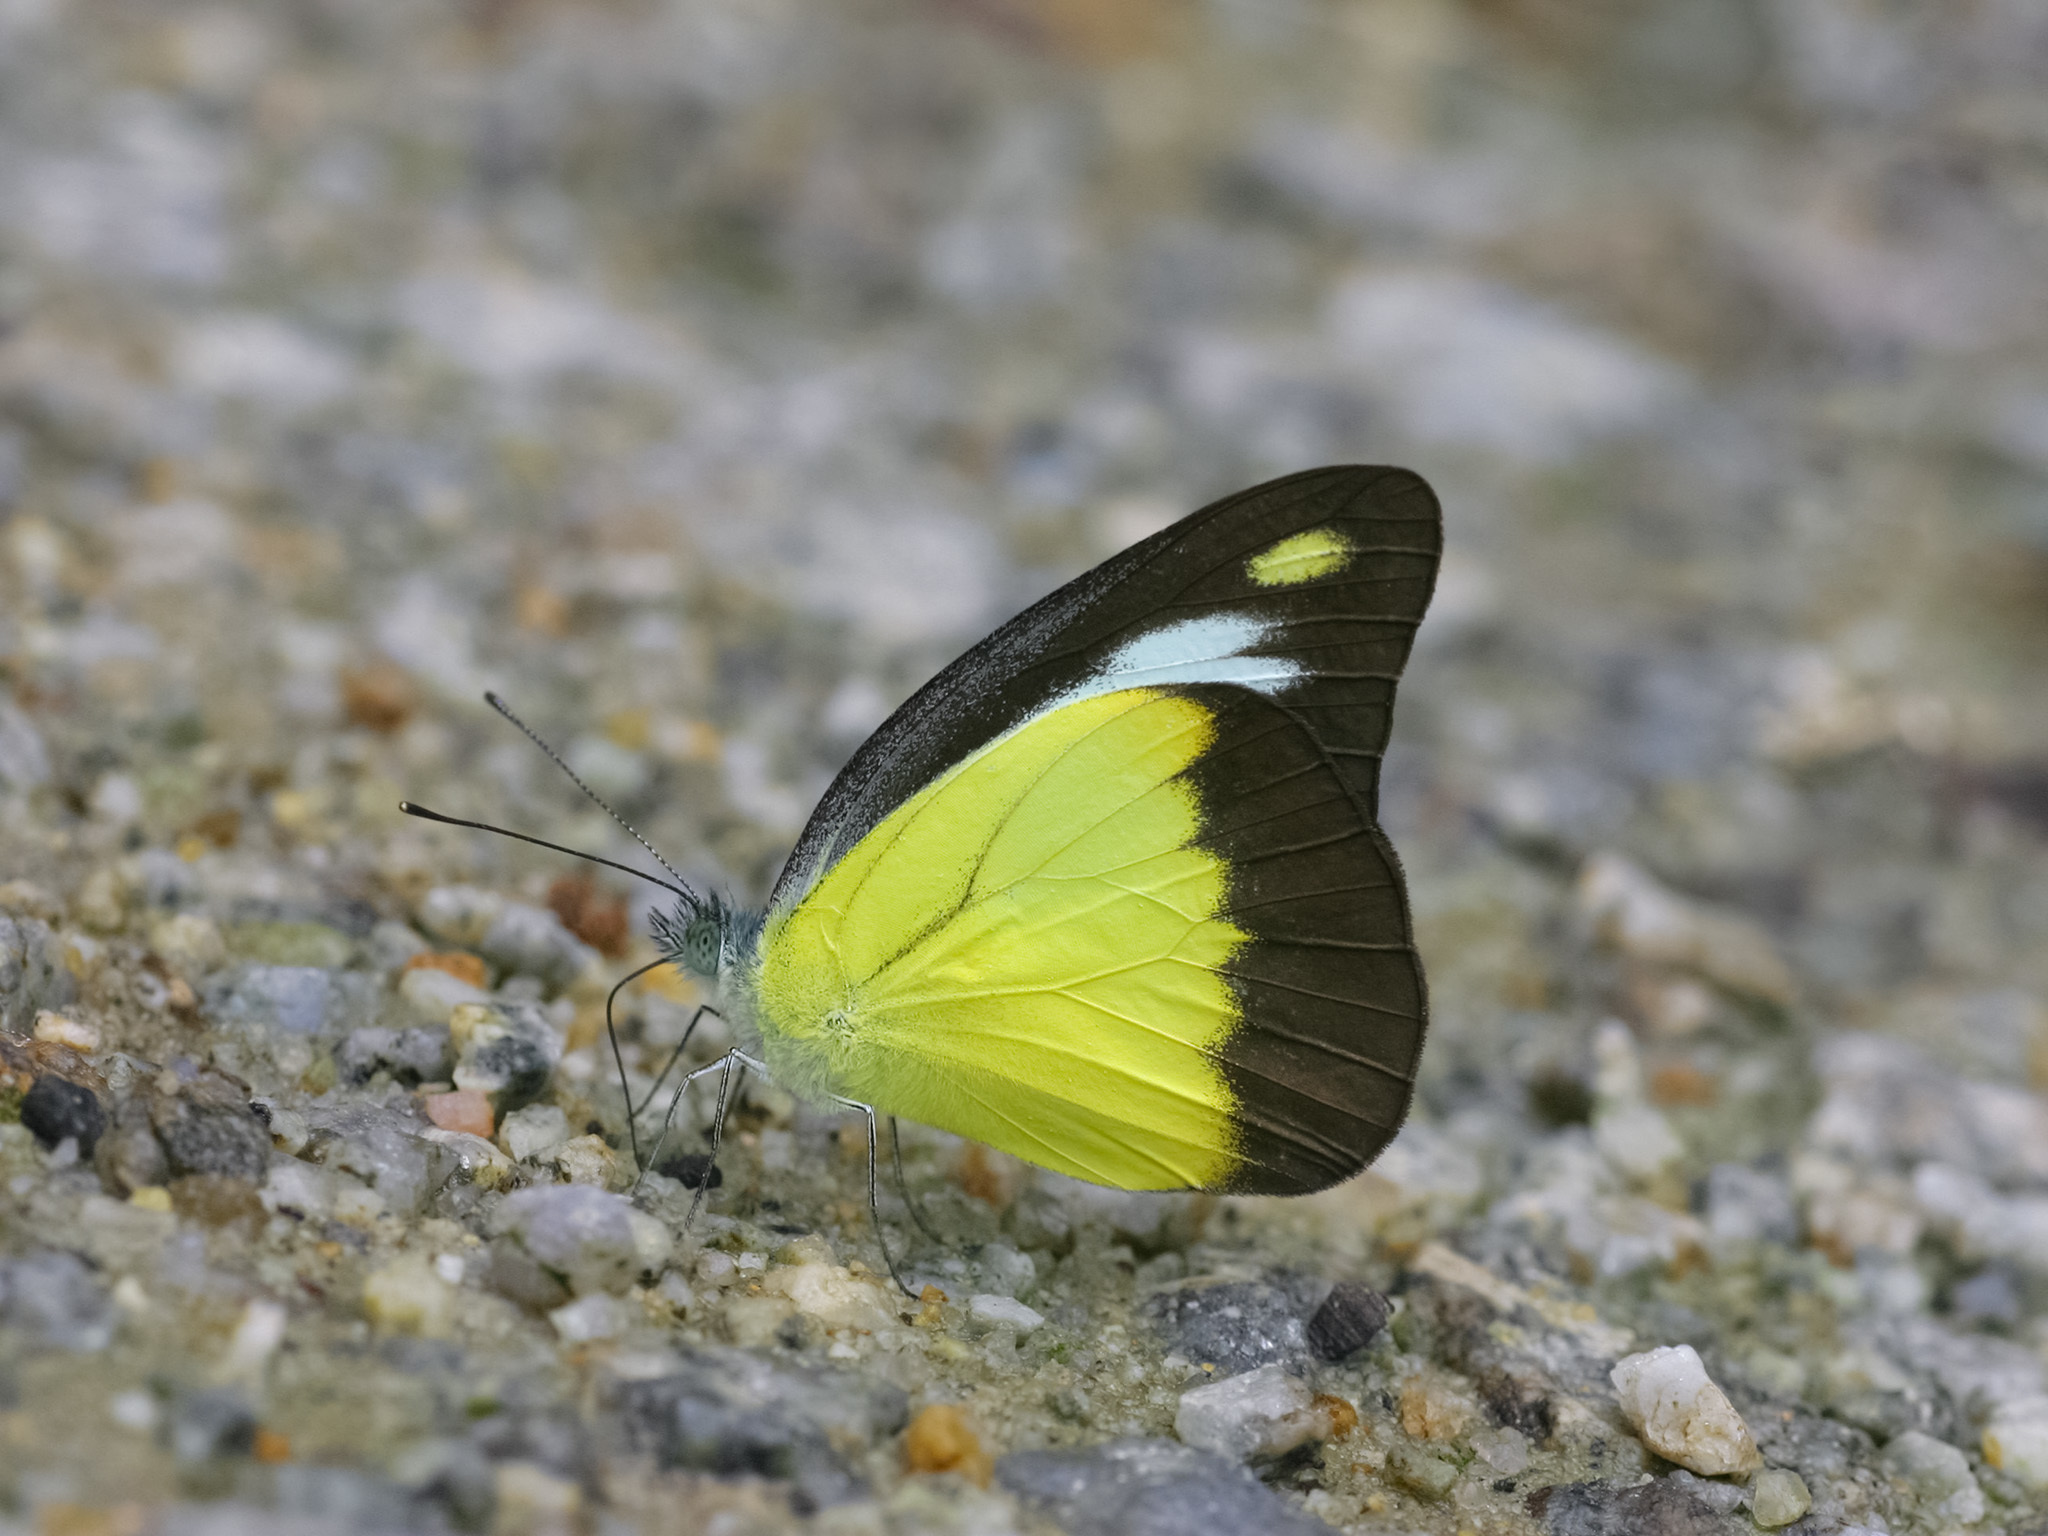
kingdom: Animalia
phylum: Arthropoda
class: Insecta
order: Lepidoptera
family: Pieridae
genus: Appias
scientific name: Appias lyncida
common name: Chocolate albatross
